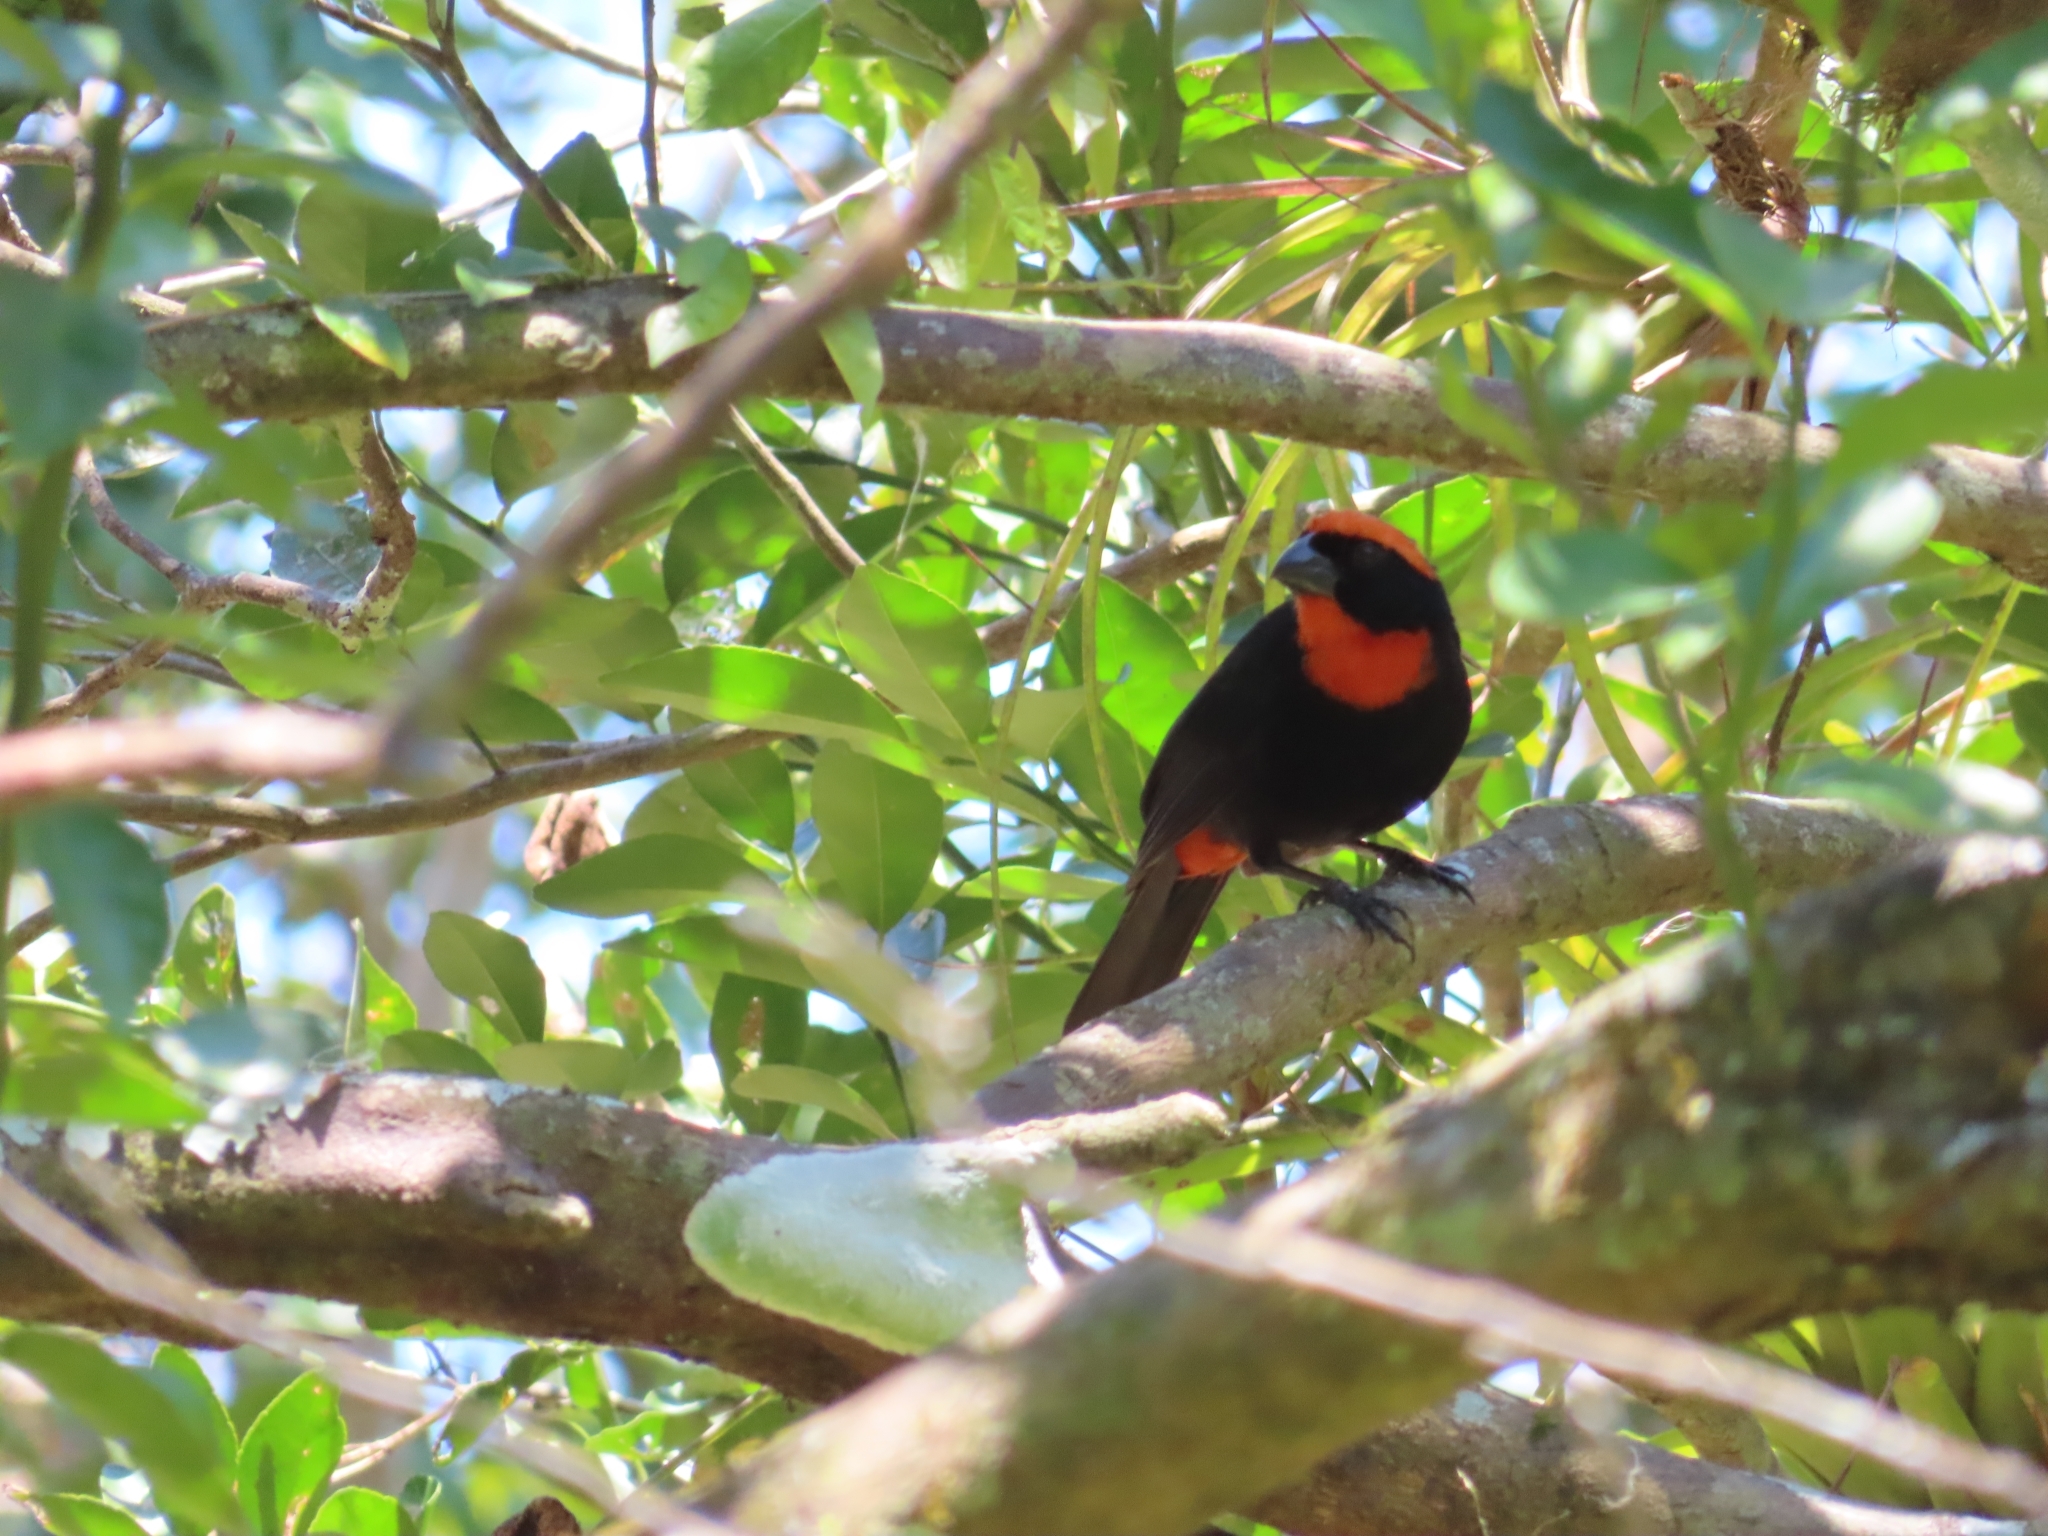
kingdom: Animalia
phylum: Chordata
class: Aves
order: Passeriformes
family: Thraupidae
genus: Melopyrrha
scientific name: Melopyrrha portoricensis
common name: Puerto rican bullfinch
